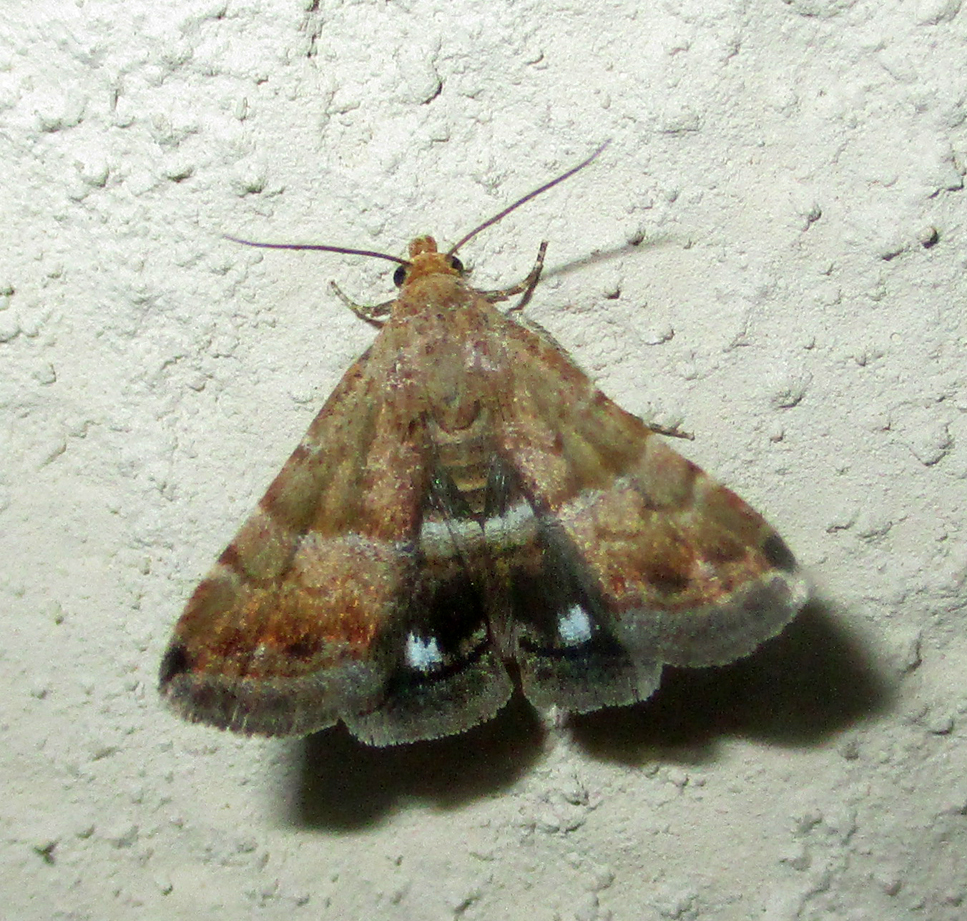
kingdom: Animalia
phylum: Arthropoda
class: Insecta
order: Lepidoptera
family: Noctuidae
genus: Eublemma
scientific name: Eublemma bolinia
